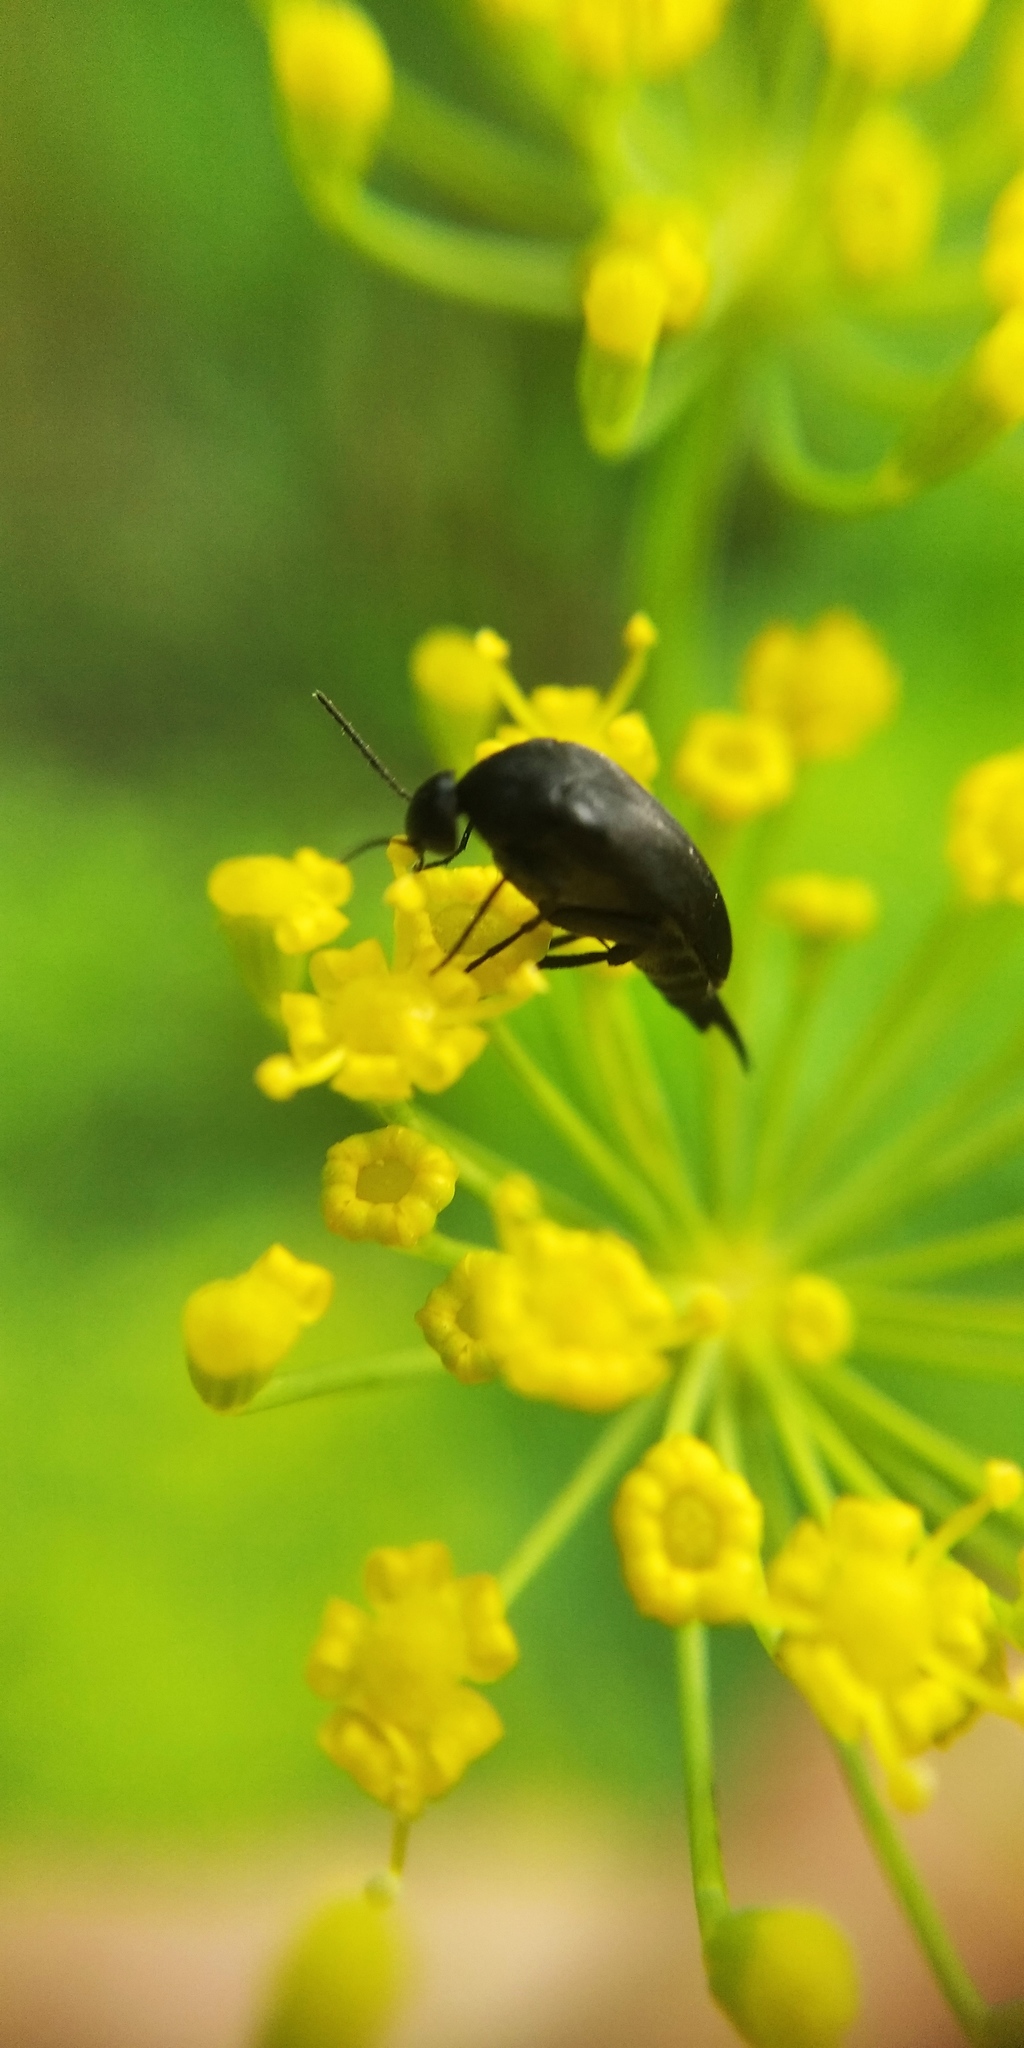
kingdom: Animalia
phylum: Arthropoda
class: Insecta
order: Coleoptera
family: Mordellidae
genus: Mordella
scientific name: Mordella holomelaena
